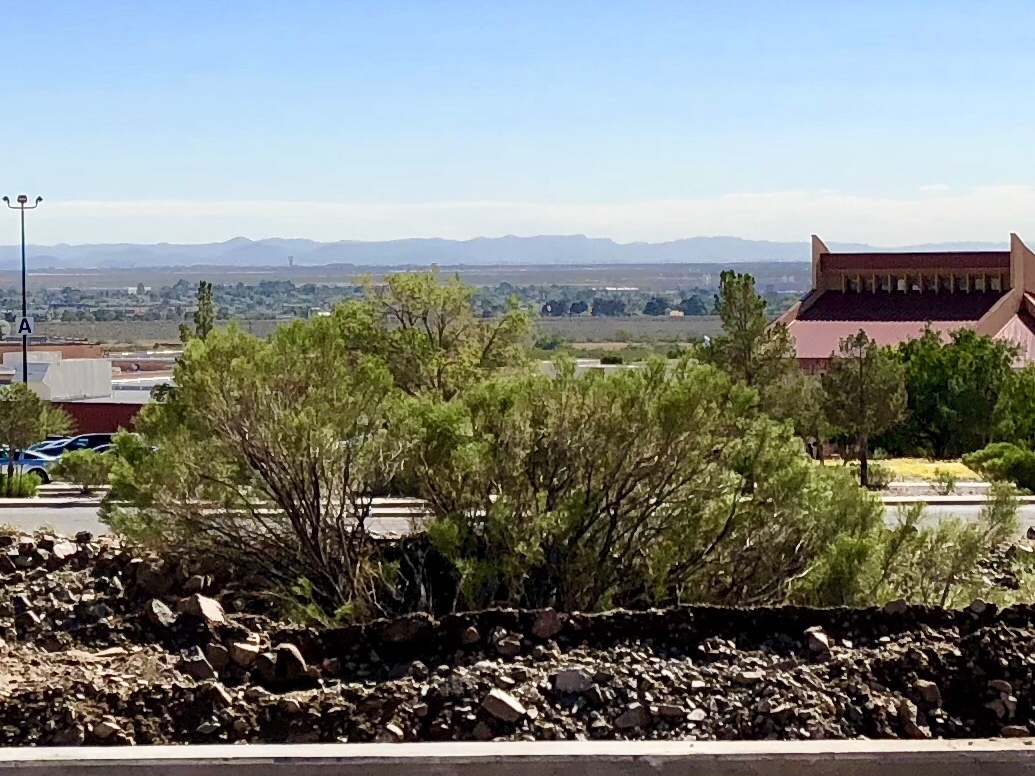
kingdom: Plantae
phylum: Tracheophyta
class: Magnoliopsida
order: Asterales
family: Asteraceae
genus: Baccharis
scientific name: Baccharis sarothroides
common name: Desert-broom
